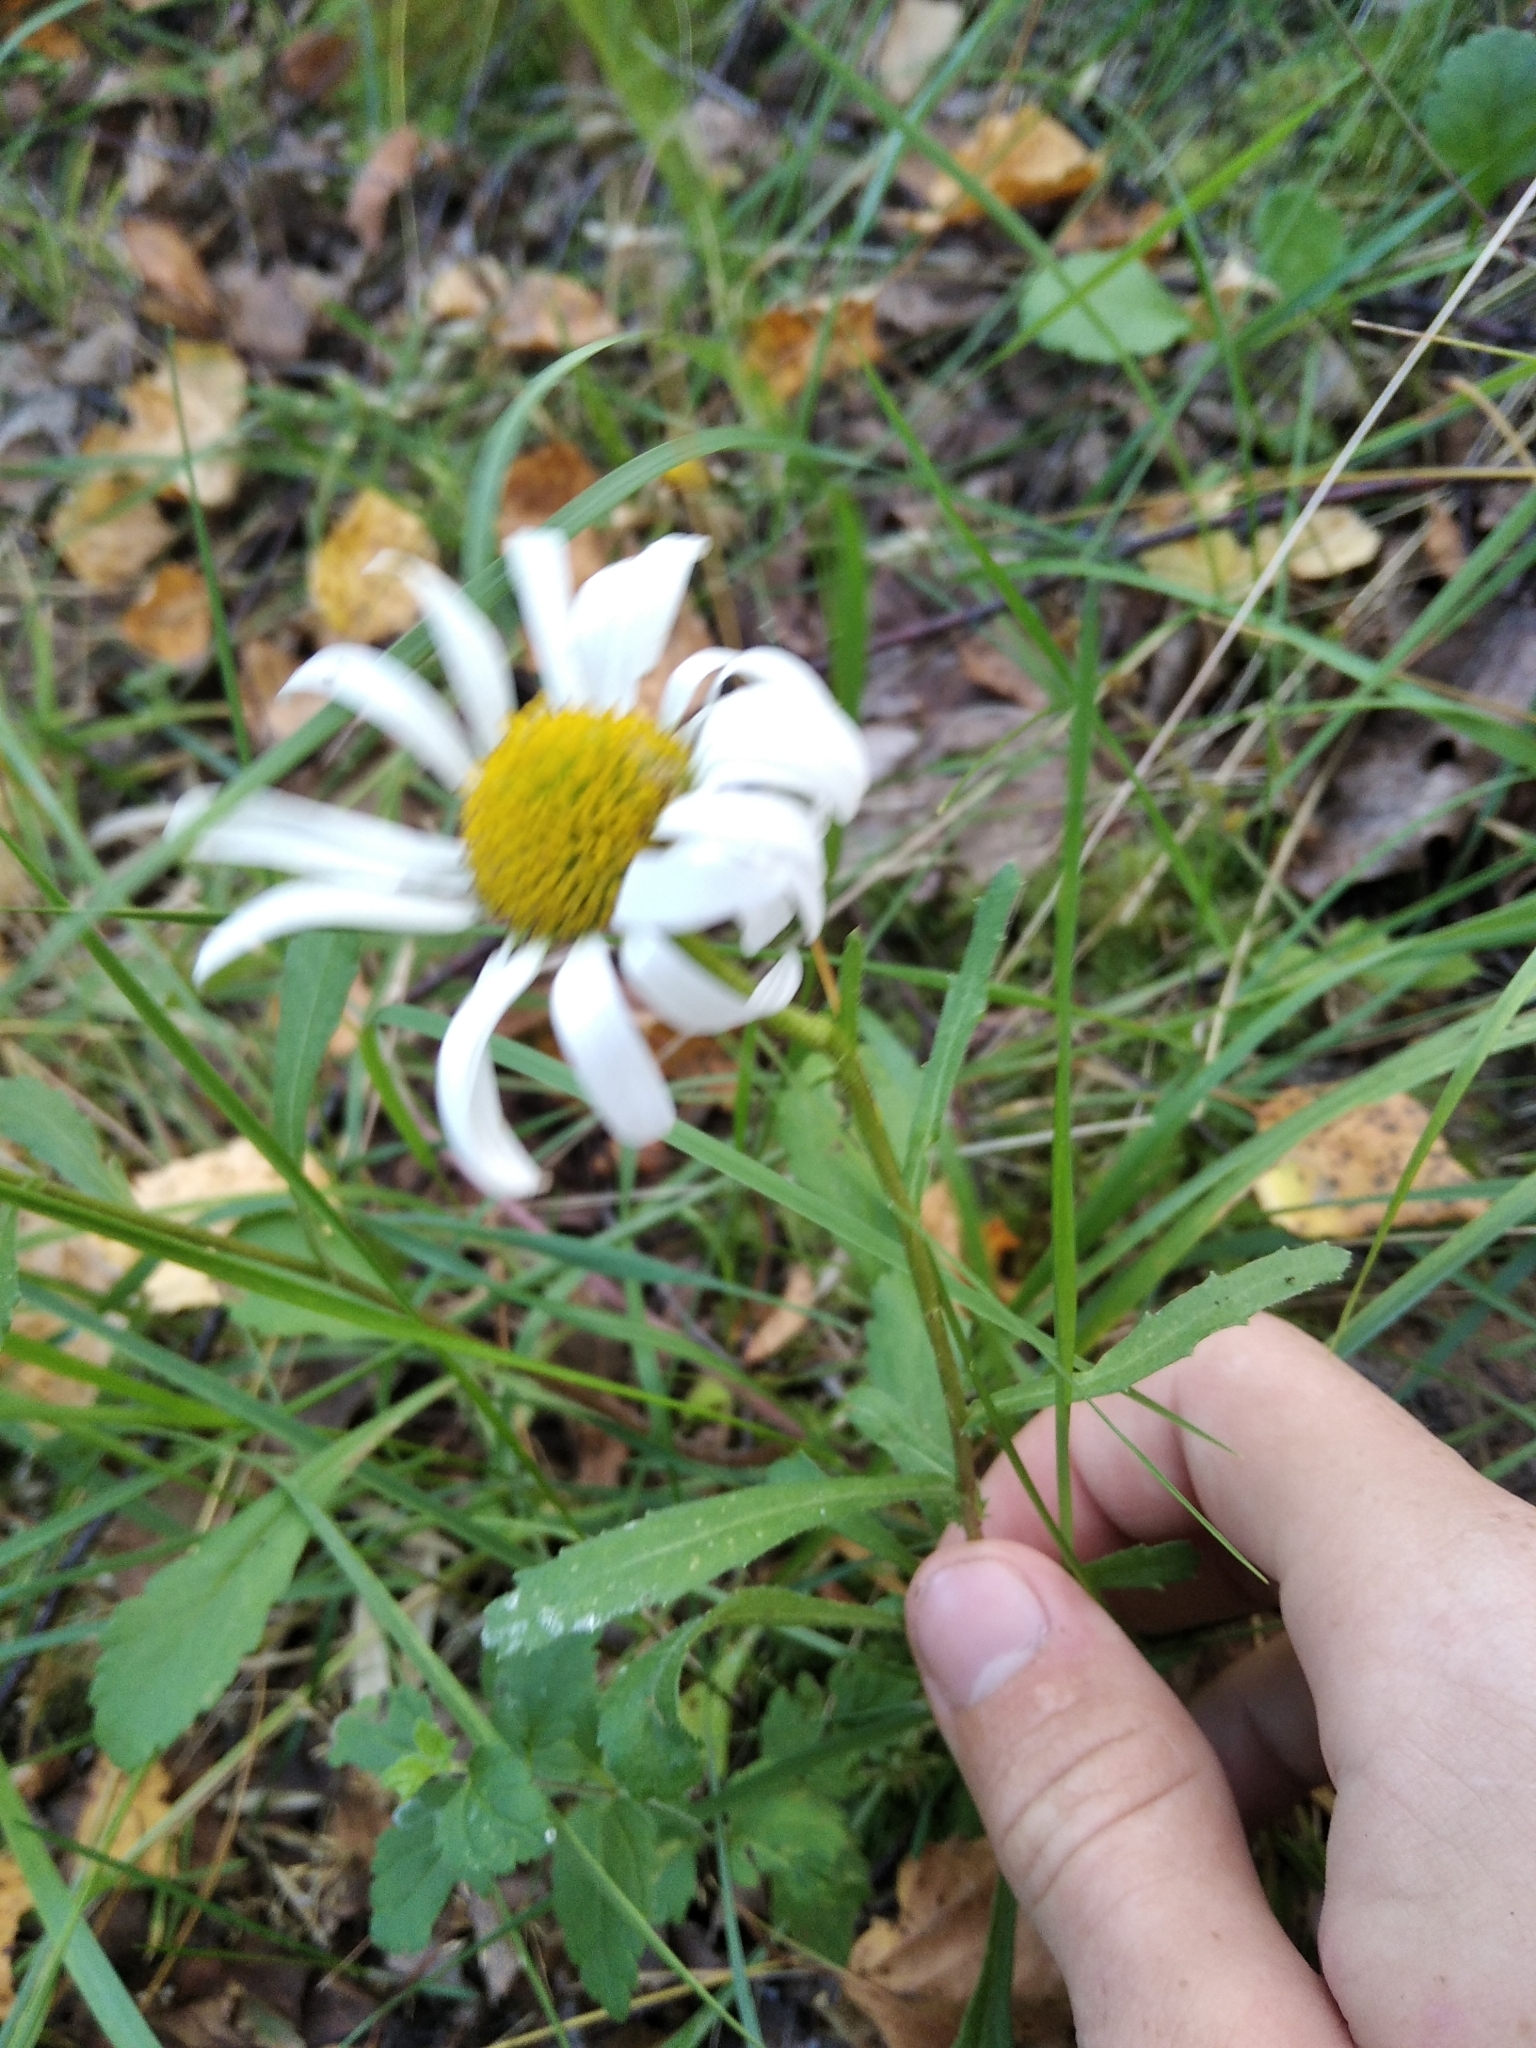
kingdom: Plantae
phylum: Tracheophyta
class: Magnoliopsida
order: Asterales
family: Asteraceae
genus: Leucanthemum
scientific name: Leucanthemum vulgare
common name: Oxeye daisy
